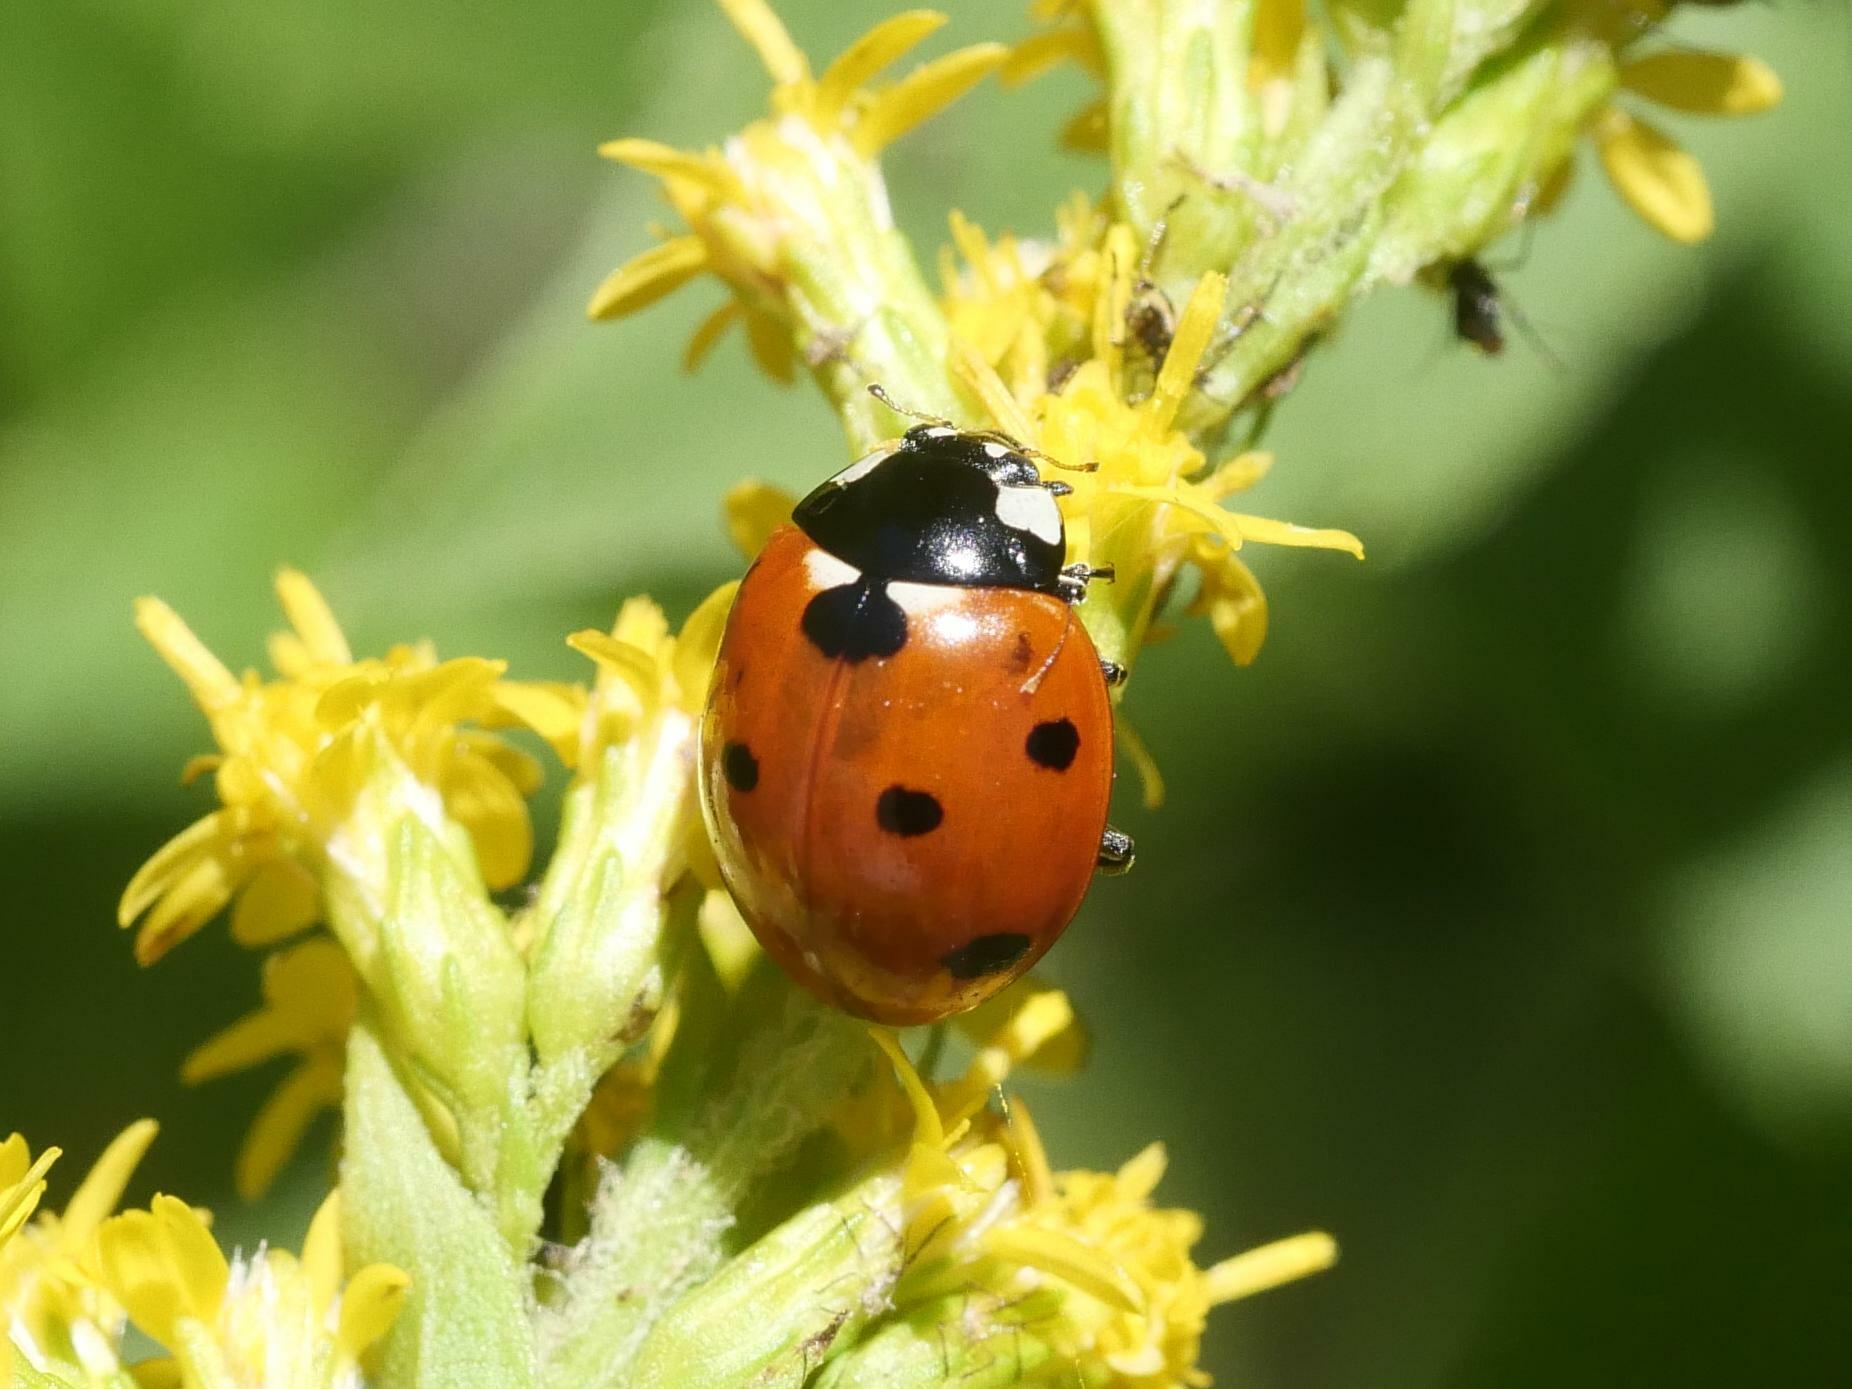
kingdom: Animalia
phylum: Arthropoda
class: Insecta
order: Coleoptera
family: Coccinellidae
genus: Coccinella
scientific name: Coccinella septempunctata
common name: Sevenspotted lady beetle
